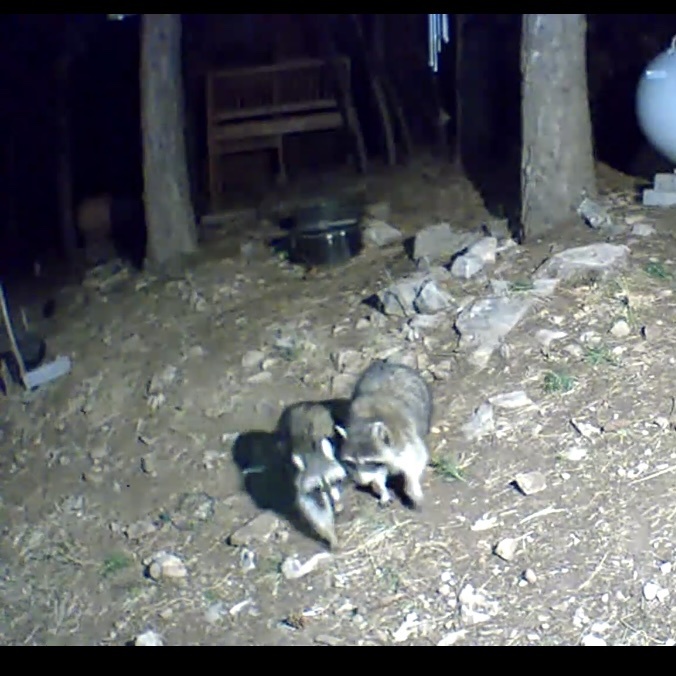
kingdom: Animalia
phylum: Chordata
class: Mammalia
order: Carnivora
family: Procyonidae
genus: Procyon
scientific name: Procyon lotor
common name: Raccoon
